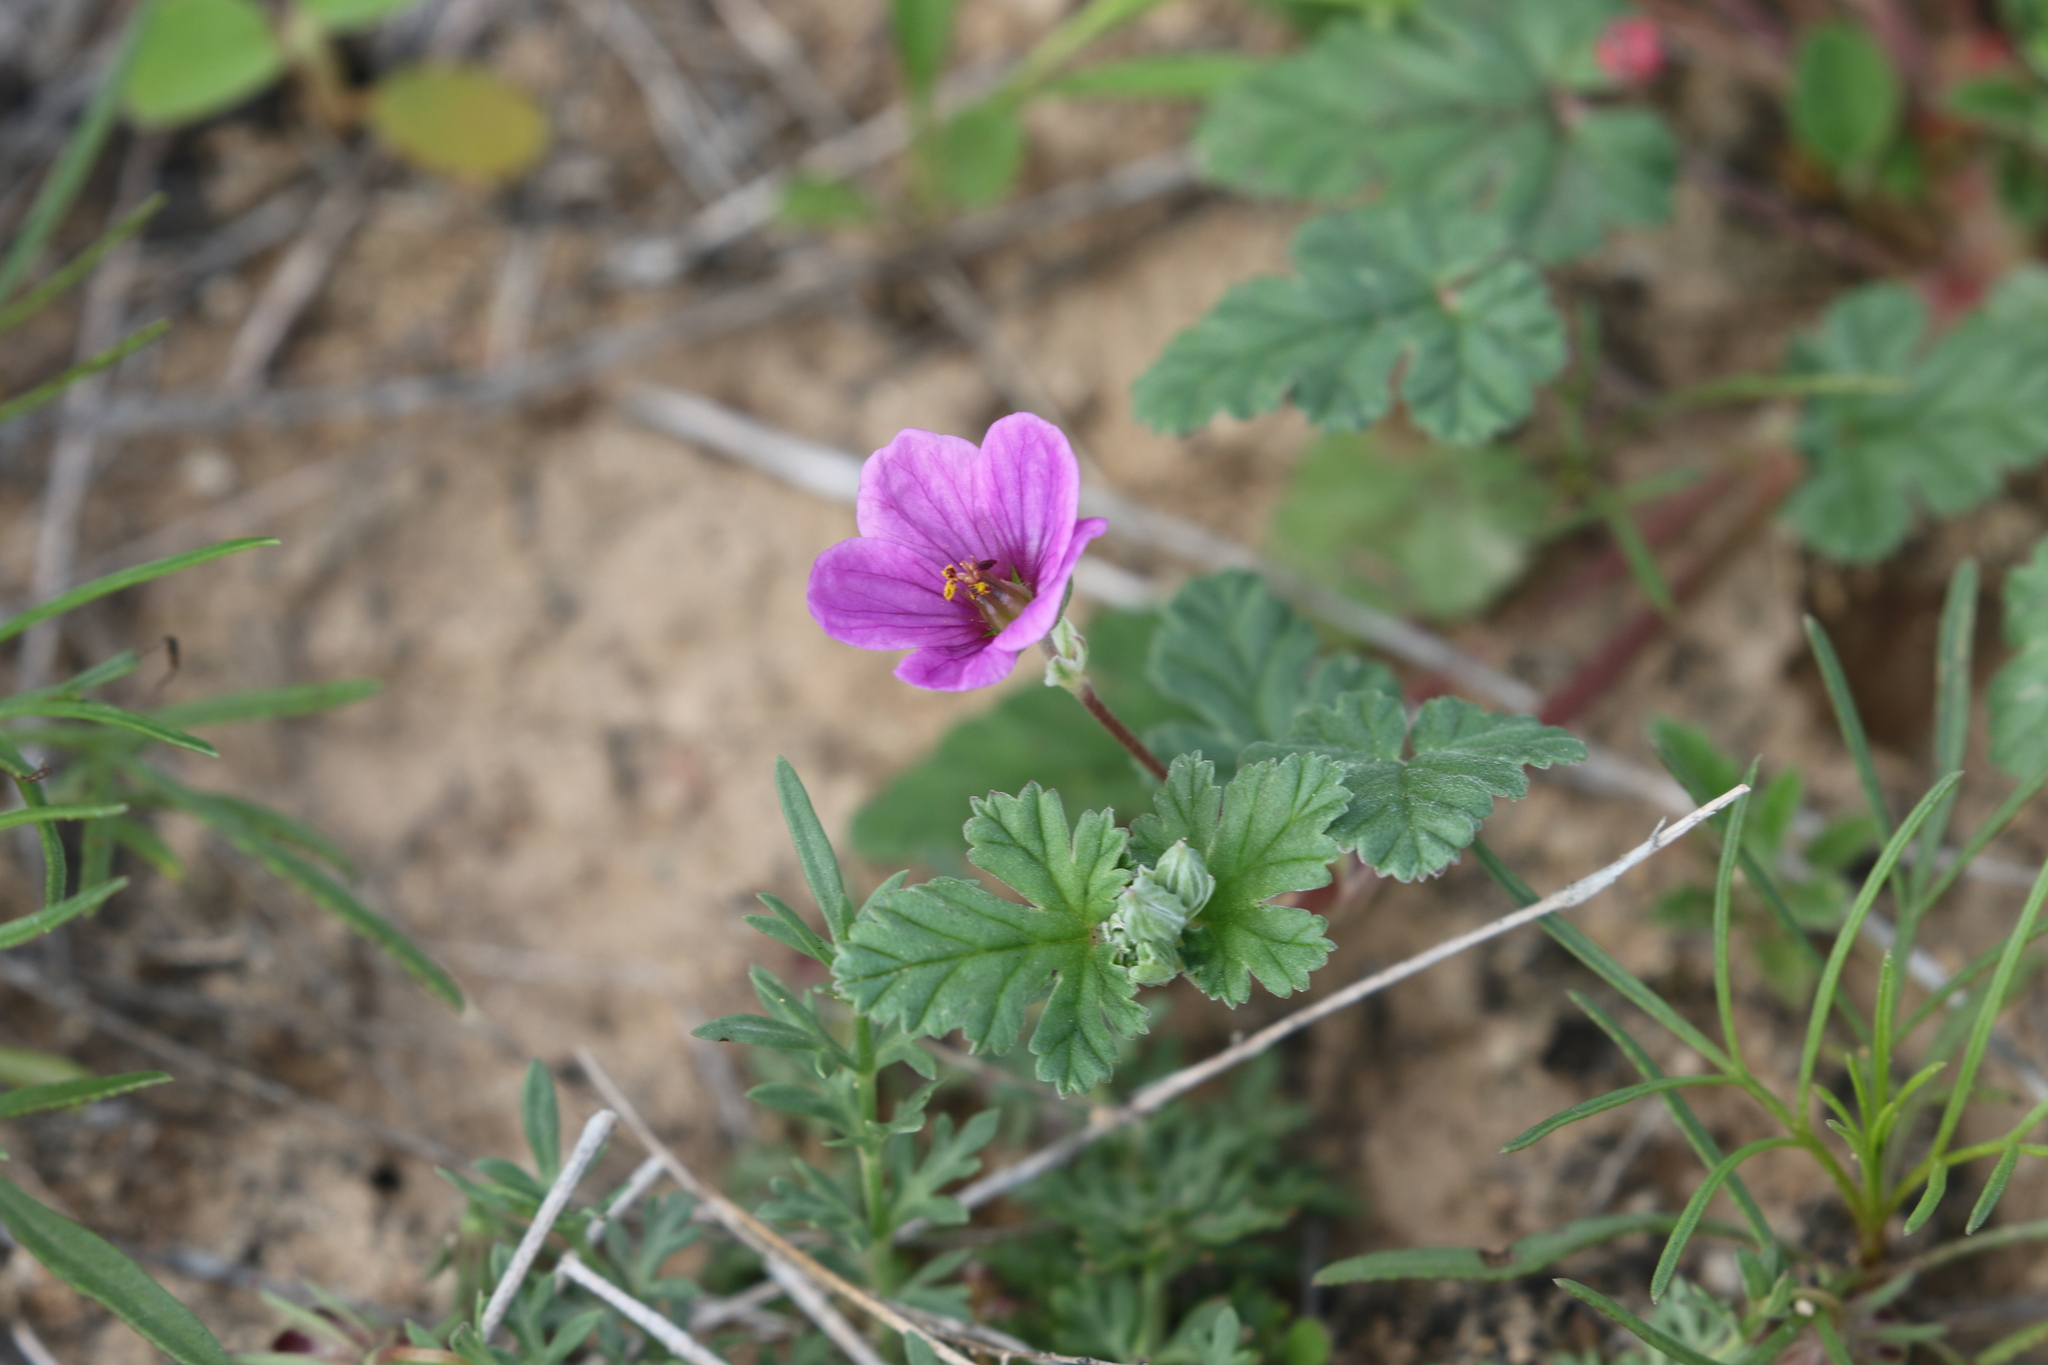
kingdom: Plantae
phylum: Tracheophyta
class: Magnoliopsida
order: Geraniales
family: Geraniaceae
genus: Erodium
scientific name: Erodium texanum
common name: Texas stork's-bill
